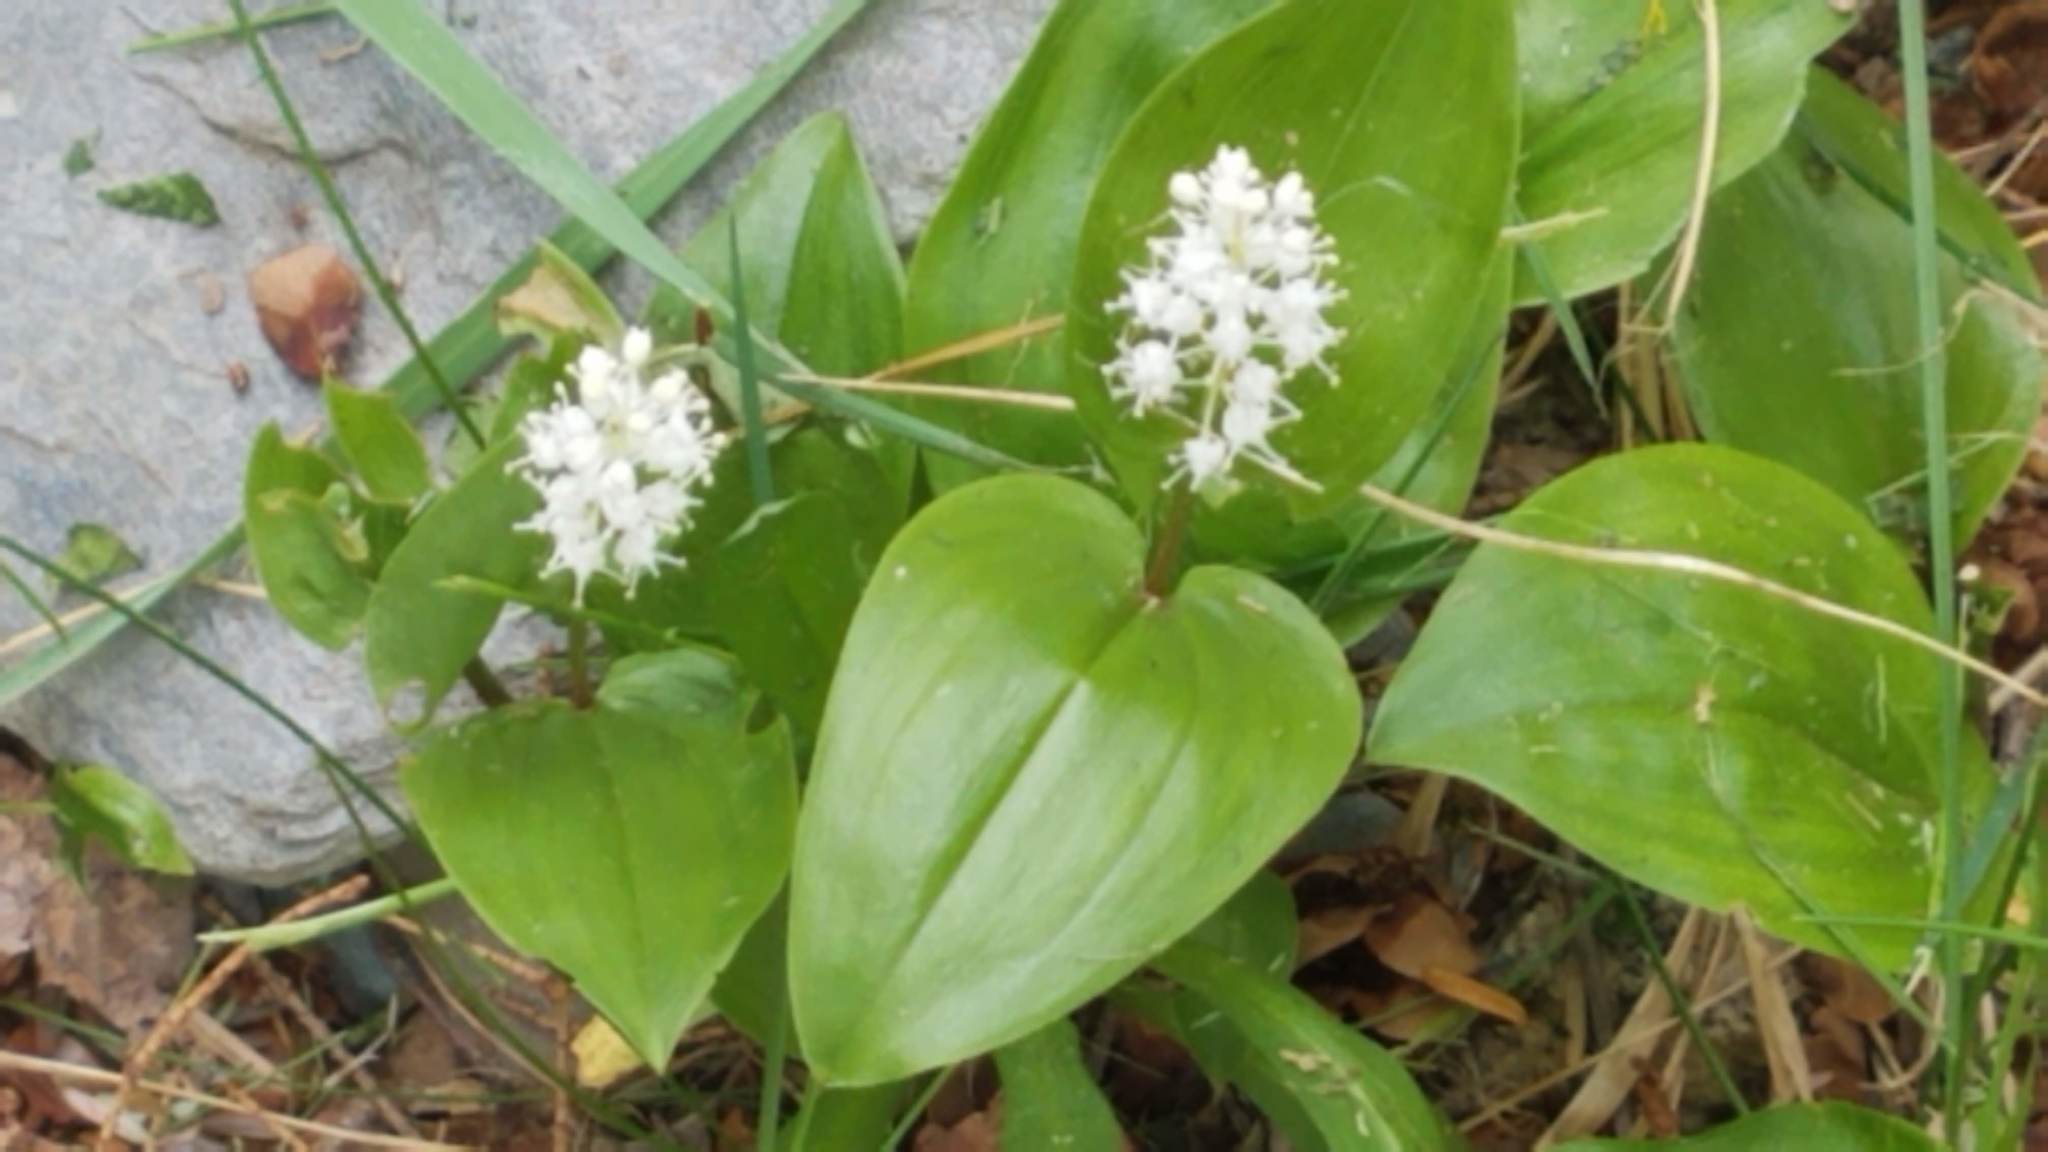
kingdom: Plantae
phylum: Tracheophyta
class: Liliopsida
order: Asparagales
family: Asparagaceae
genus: Maianthemum
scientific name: Maianthemum canadense
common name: False lily-of-the-valley
